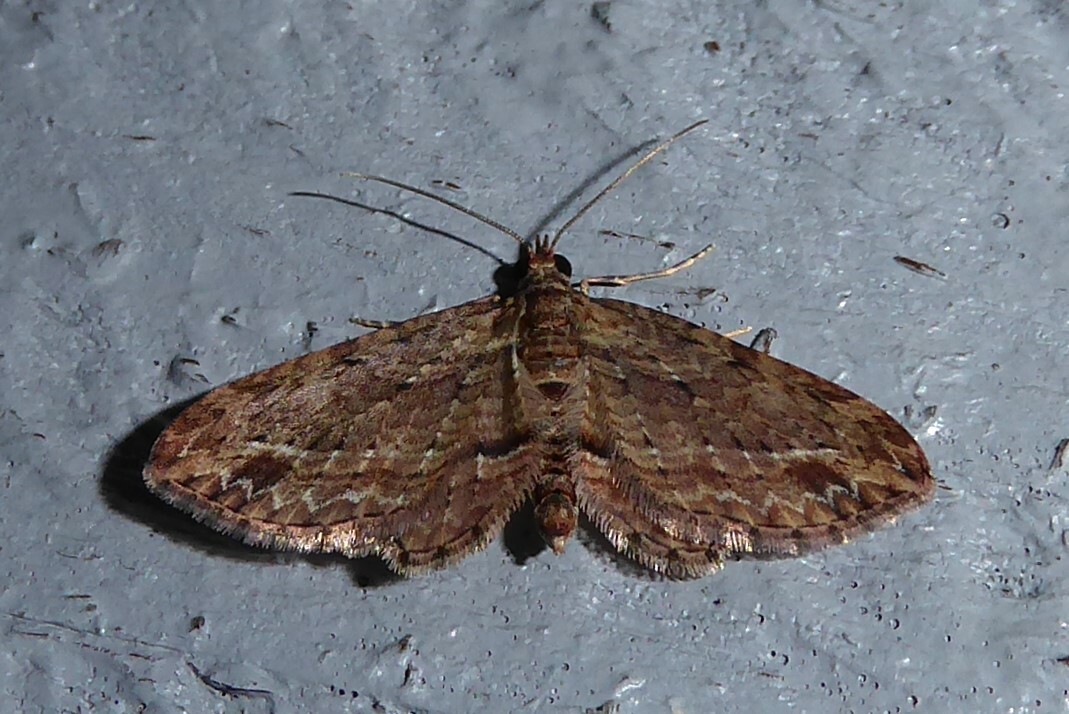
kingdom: Animalia
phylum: Arthropoda
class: Insecta
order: Lepidoptera
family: Geometridae
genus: Chloroclystis
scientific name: Chloroclystis filata
